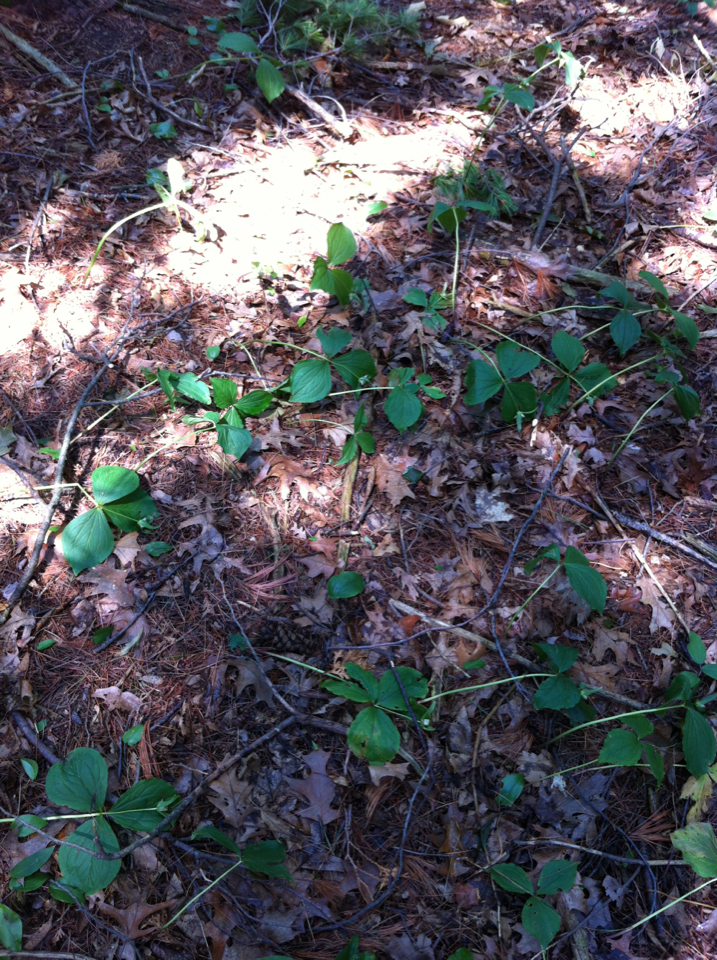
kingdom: Plantae
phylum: Tracheophyta
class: Liliopsida
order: Liliales
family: Melanthiaceae
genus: Trillium
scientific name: Trillium grandiflorum
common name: Great white trillium
